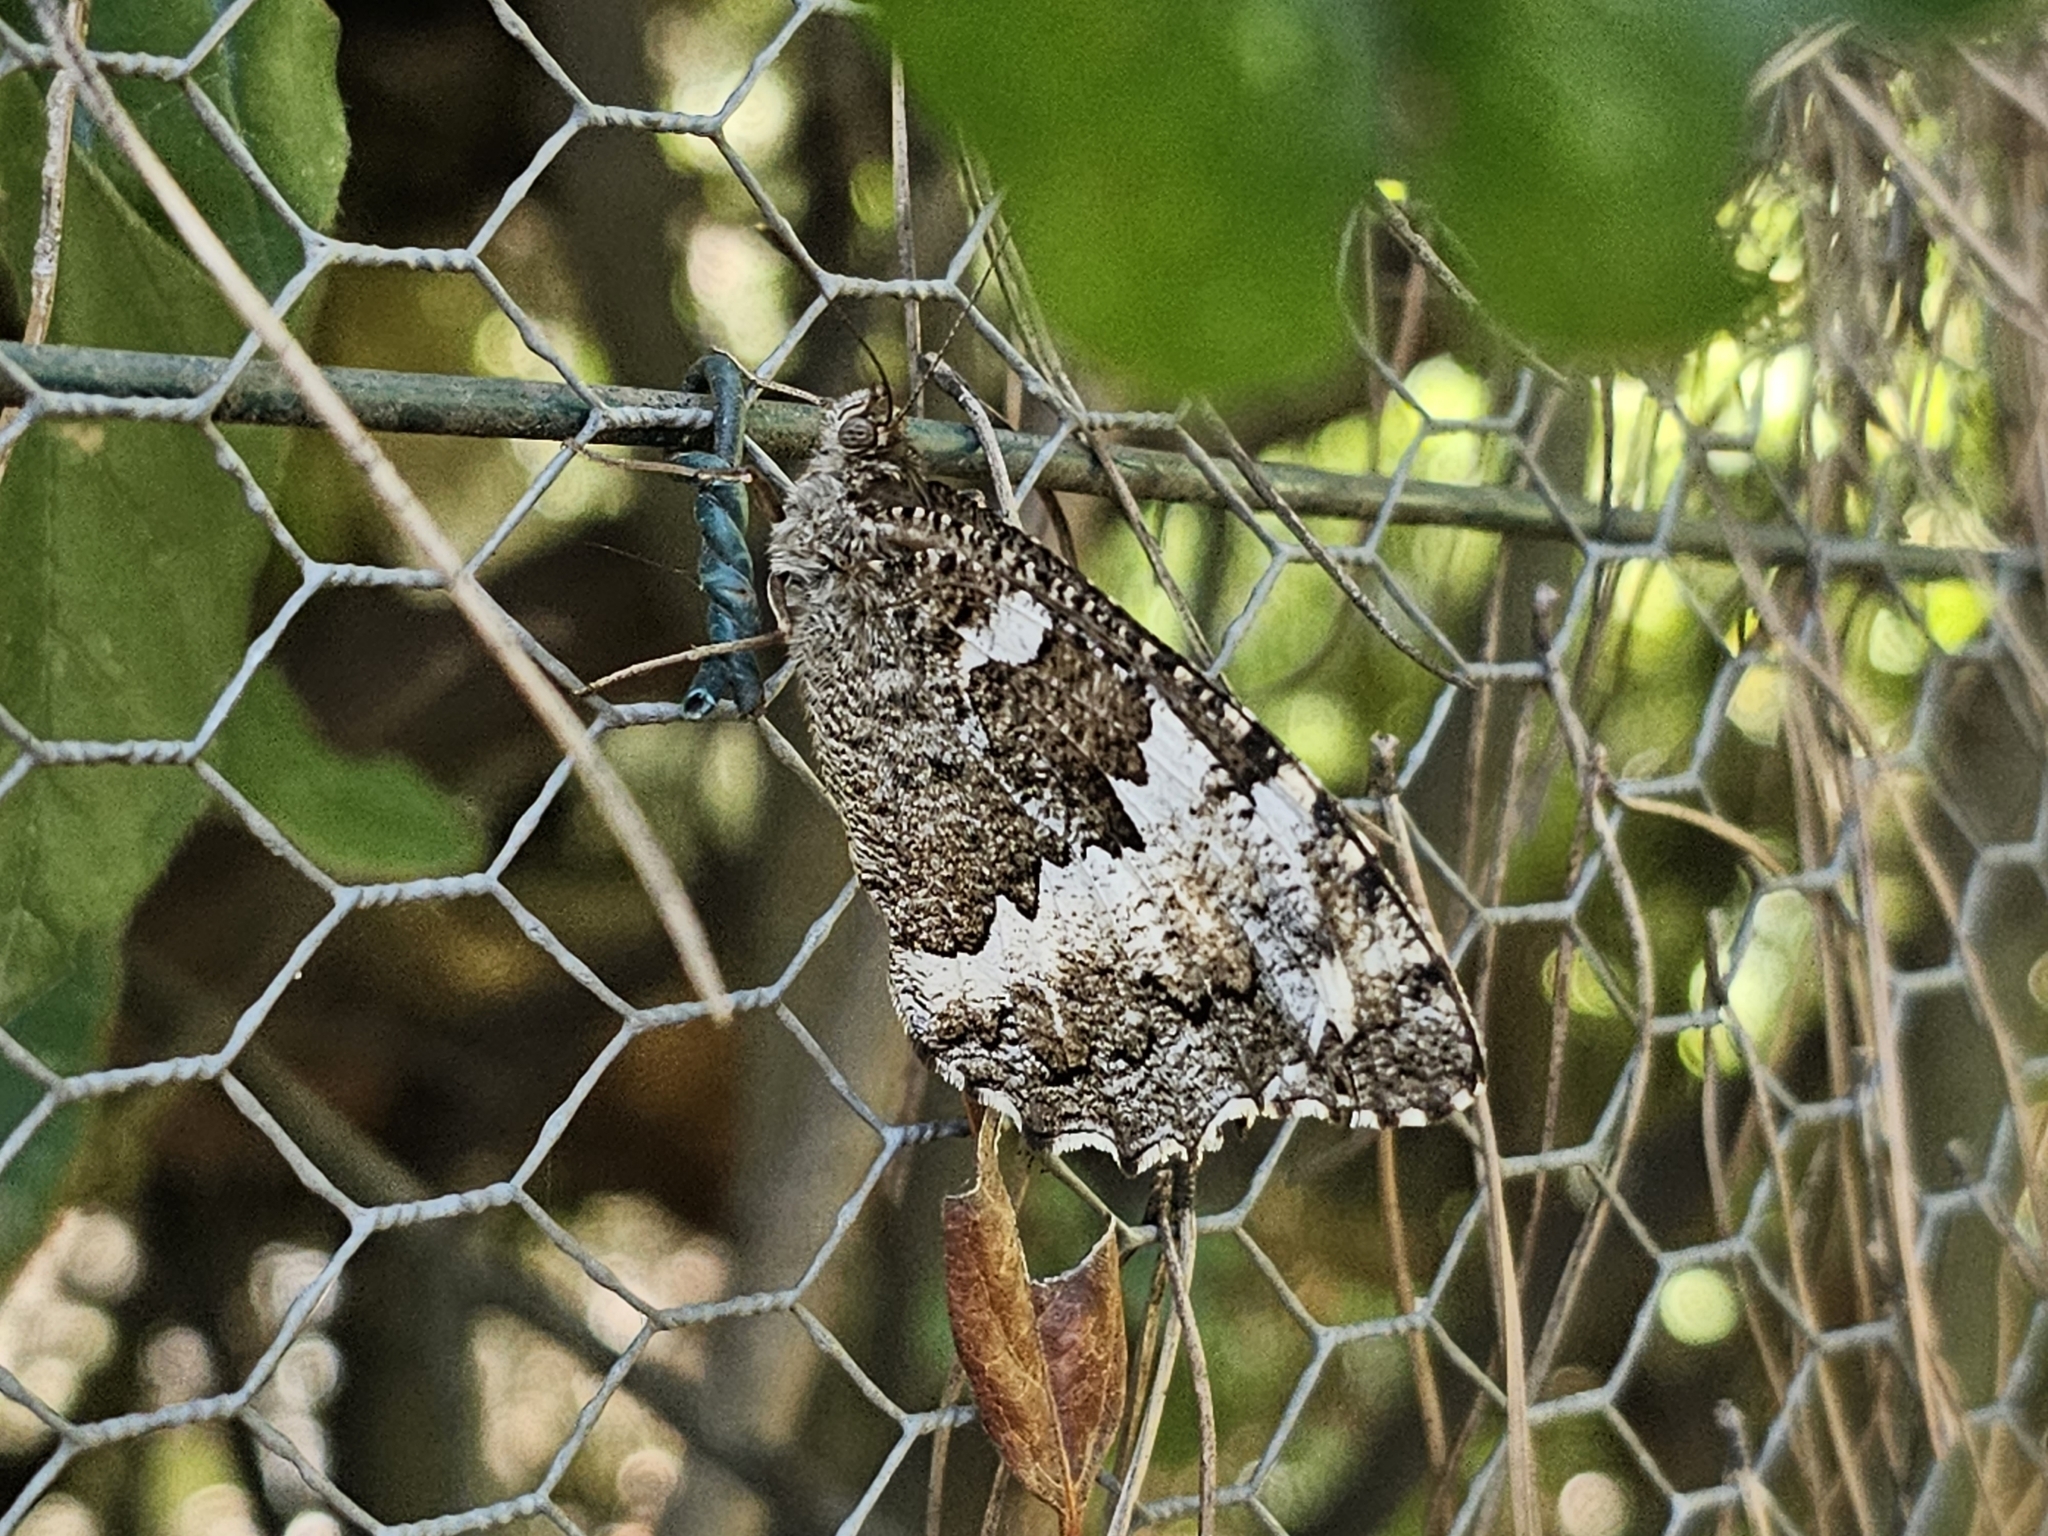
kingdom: Animalia
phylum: Arthropoda
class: Insecta
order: Lepidoptera
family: Lycaenidae
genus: Loweia
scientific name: Loweia tityrus
